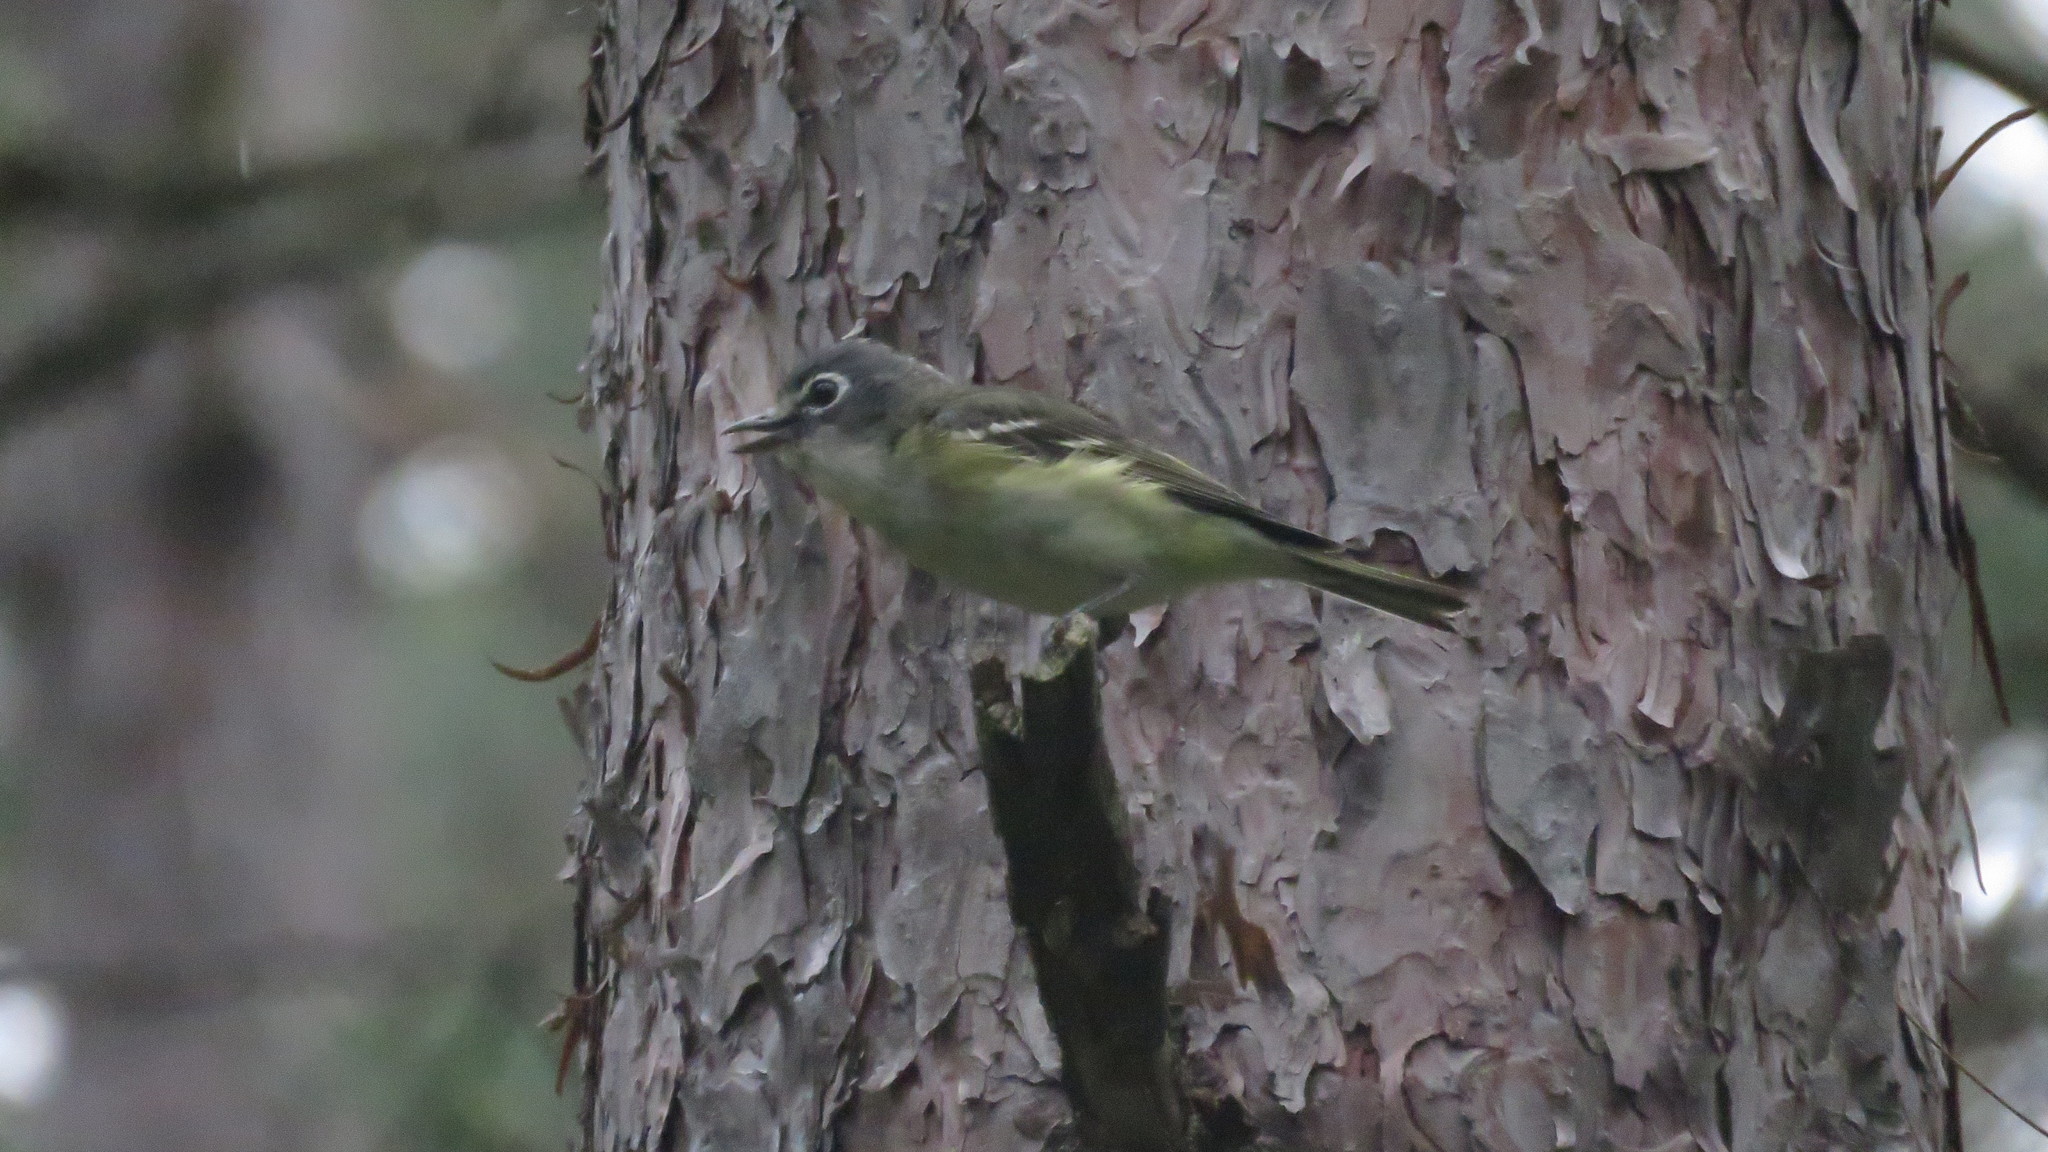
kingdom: Animalia
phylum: Chordata
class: Aves
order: Passeriformes
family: Vireonidae
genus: Vireo
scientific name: Vireo solitarius
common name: Blue-headed vireo
